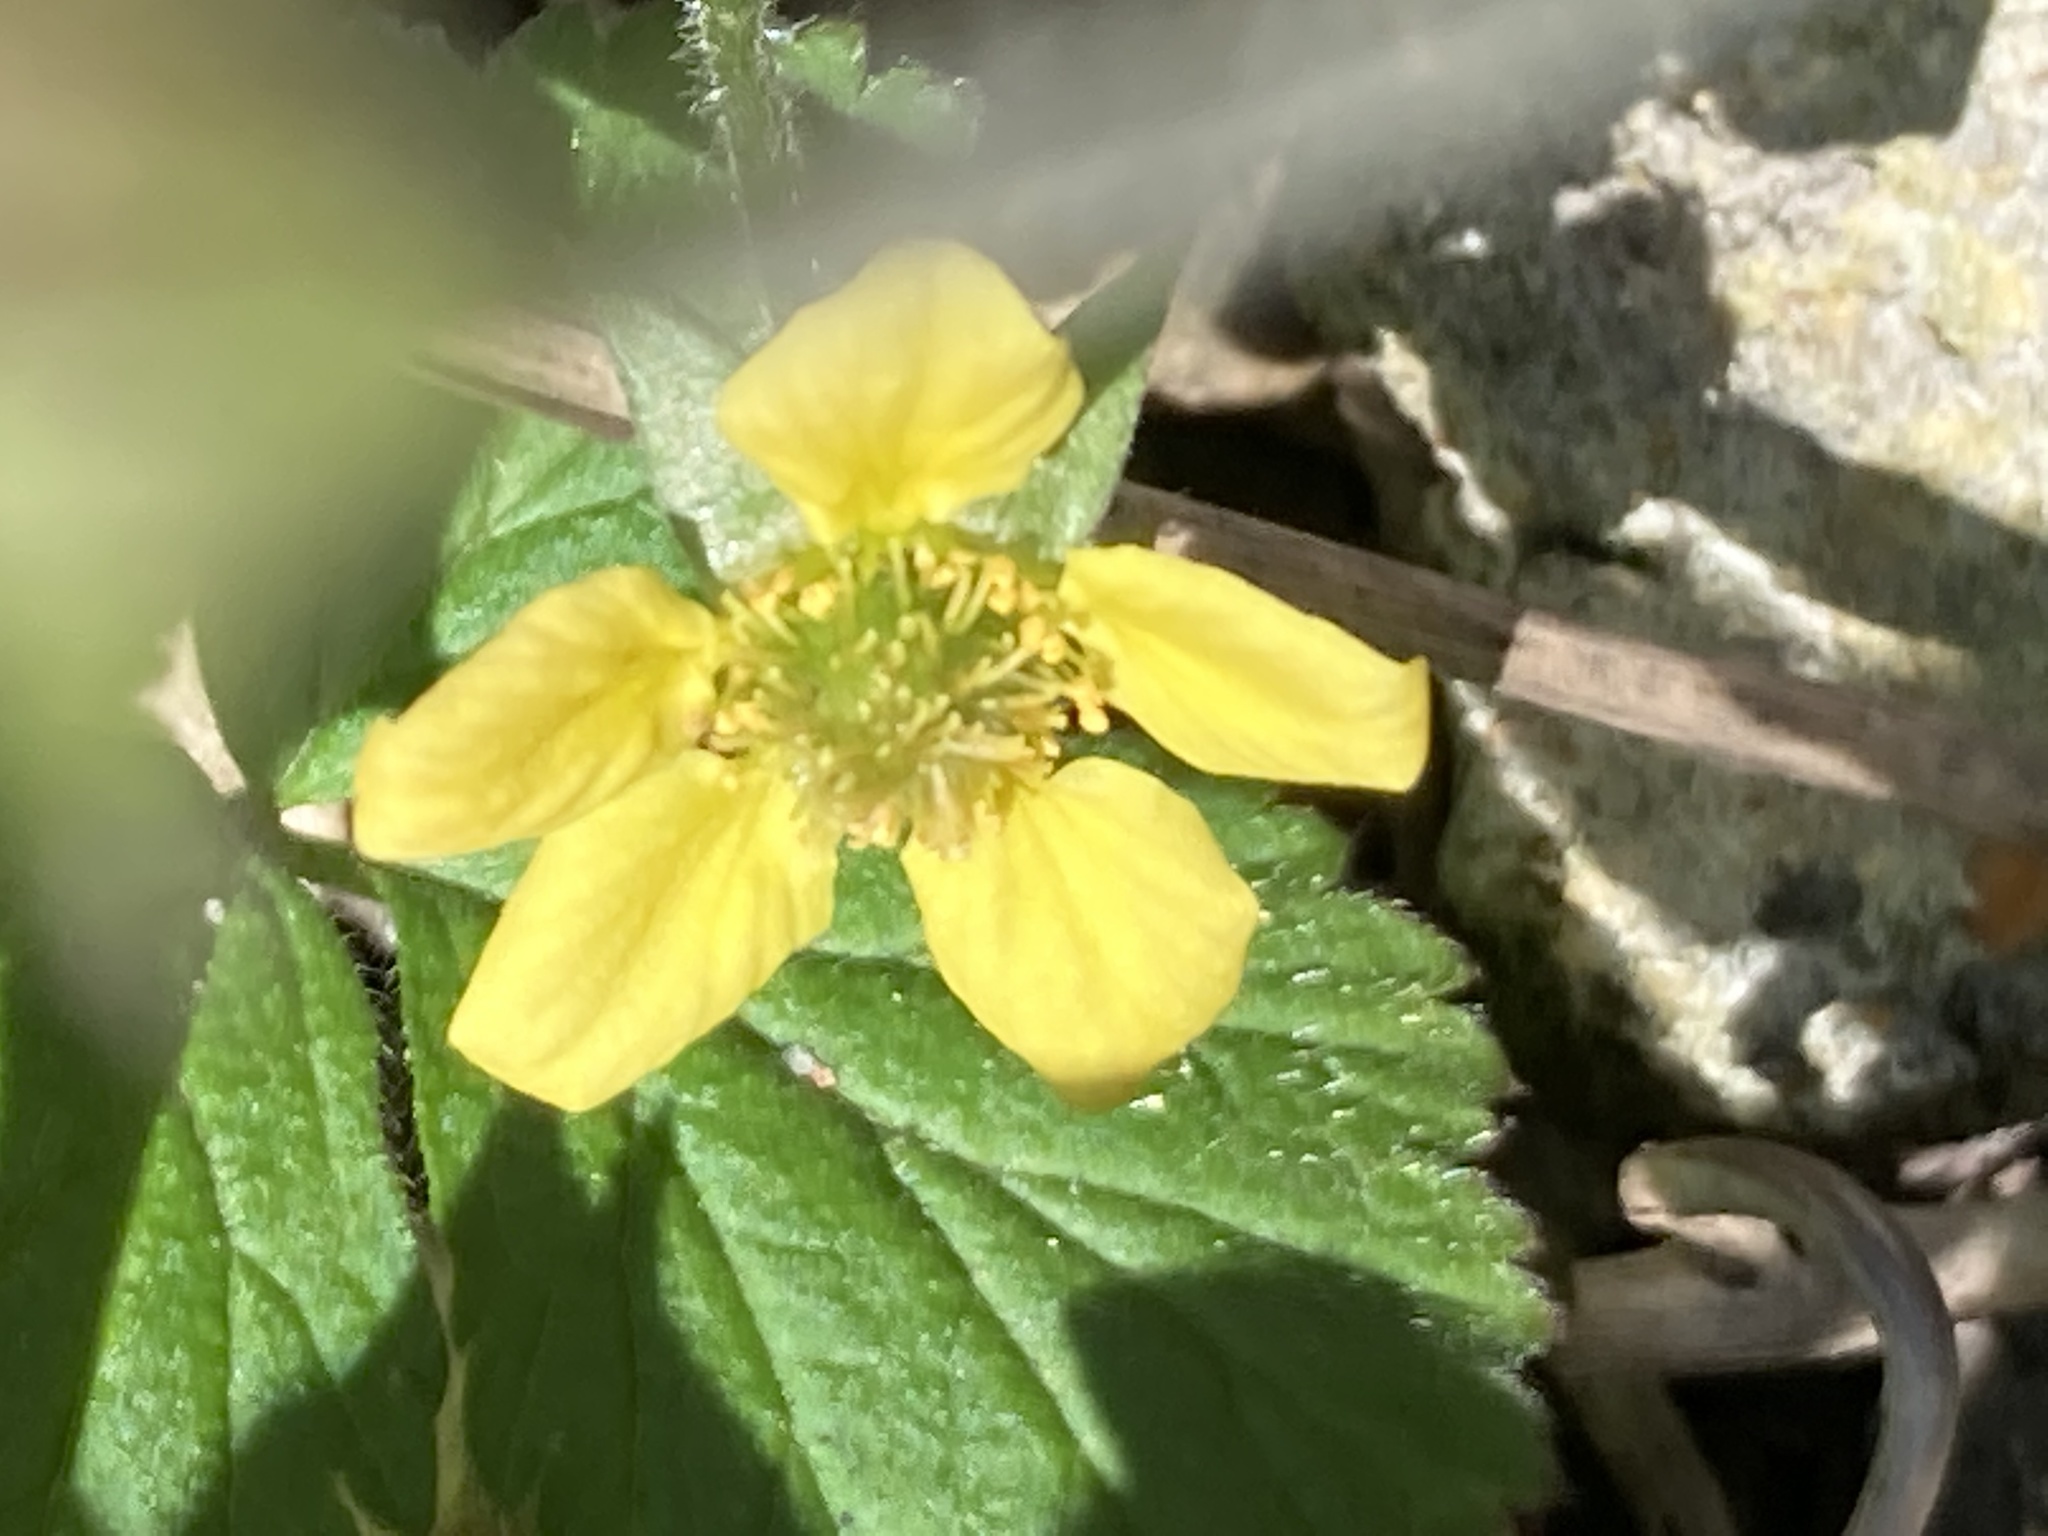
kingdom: Plantae
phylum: Tracheophyta
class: Magnoliopsida
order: Rosales
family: Rosaceae
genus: Geum
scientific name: Geum urbanum
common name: Wood avens
